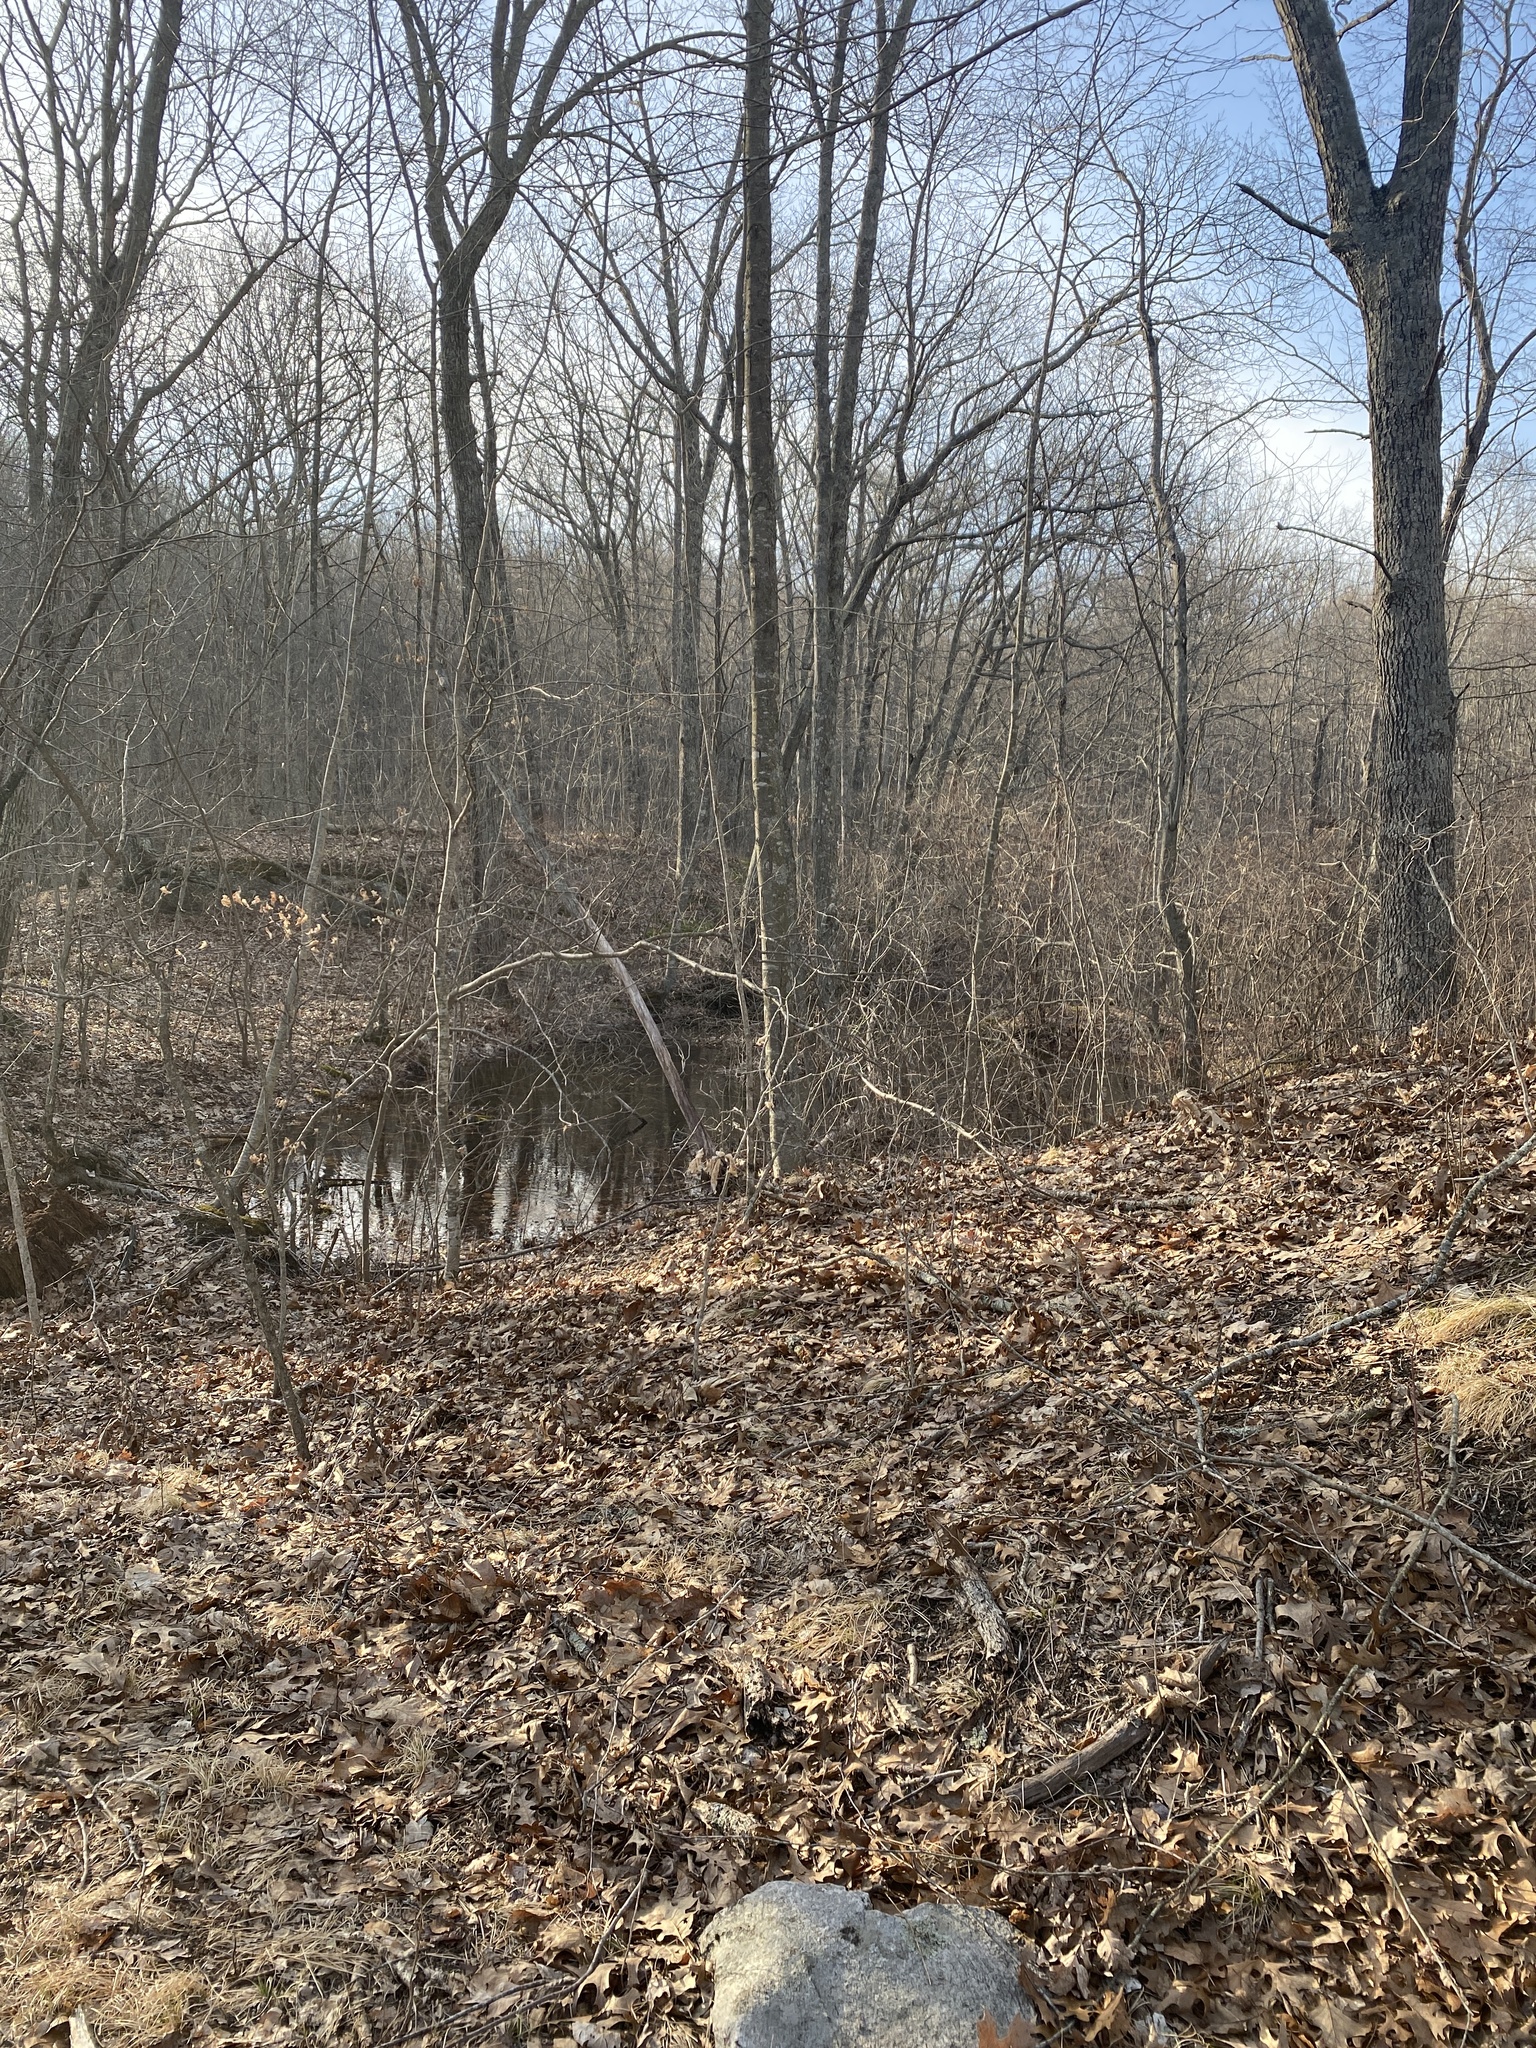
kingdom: Animalia
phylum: Chordata
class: Amphibia
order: Anura
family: Ranidae
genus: Lithobates
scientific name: Lithobates sylvaticus
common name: Wood frog
